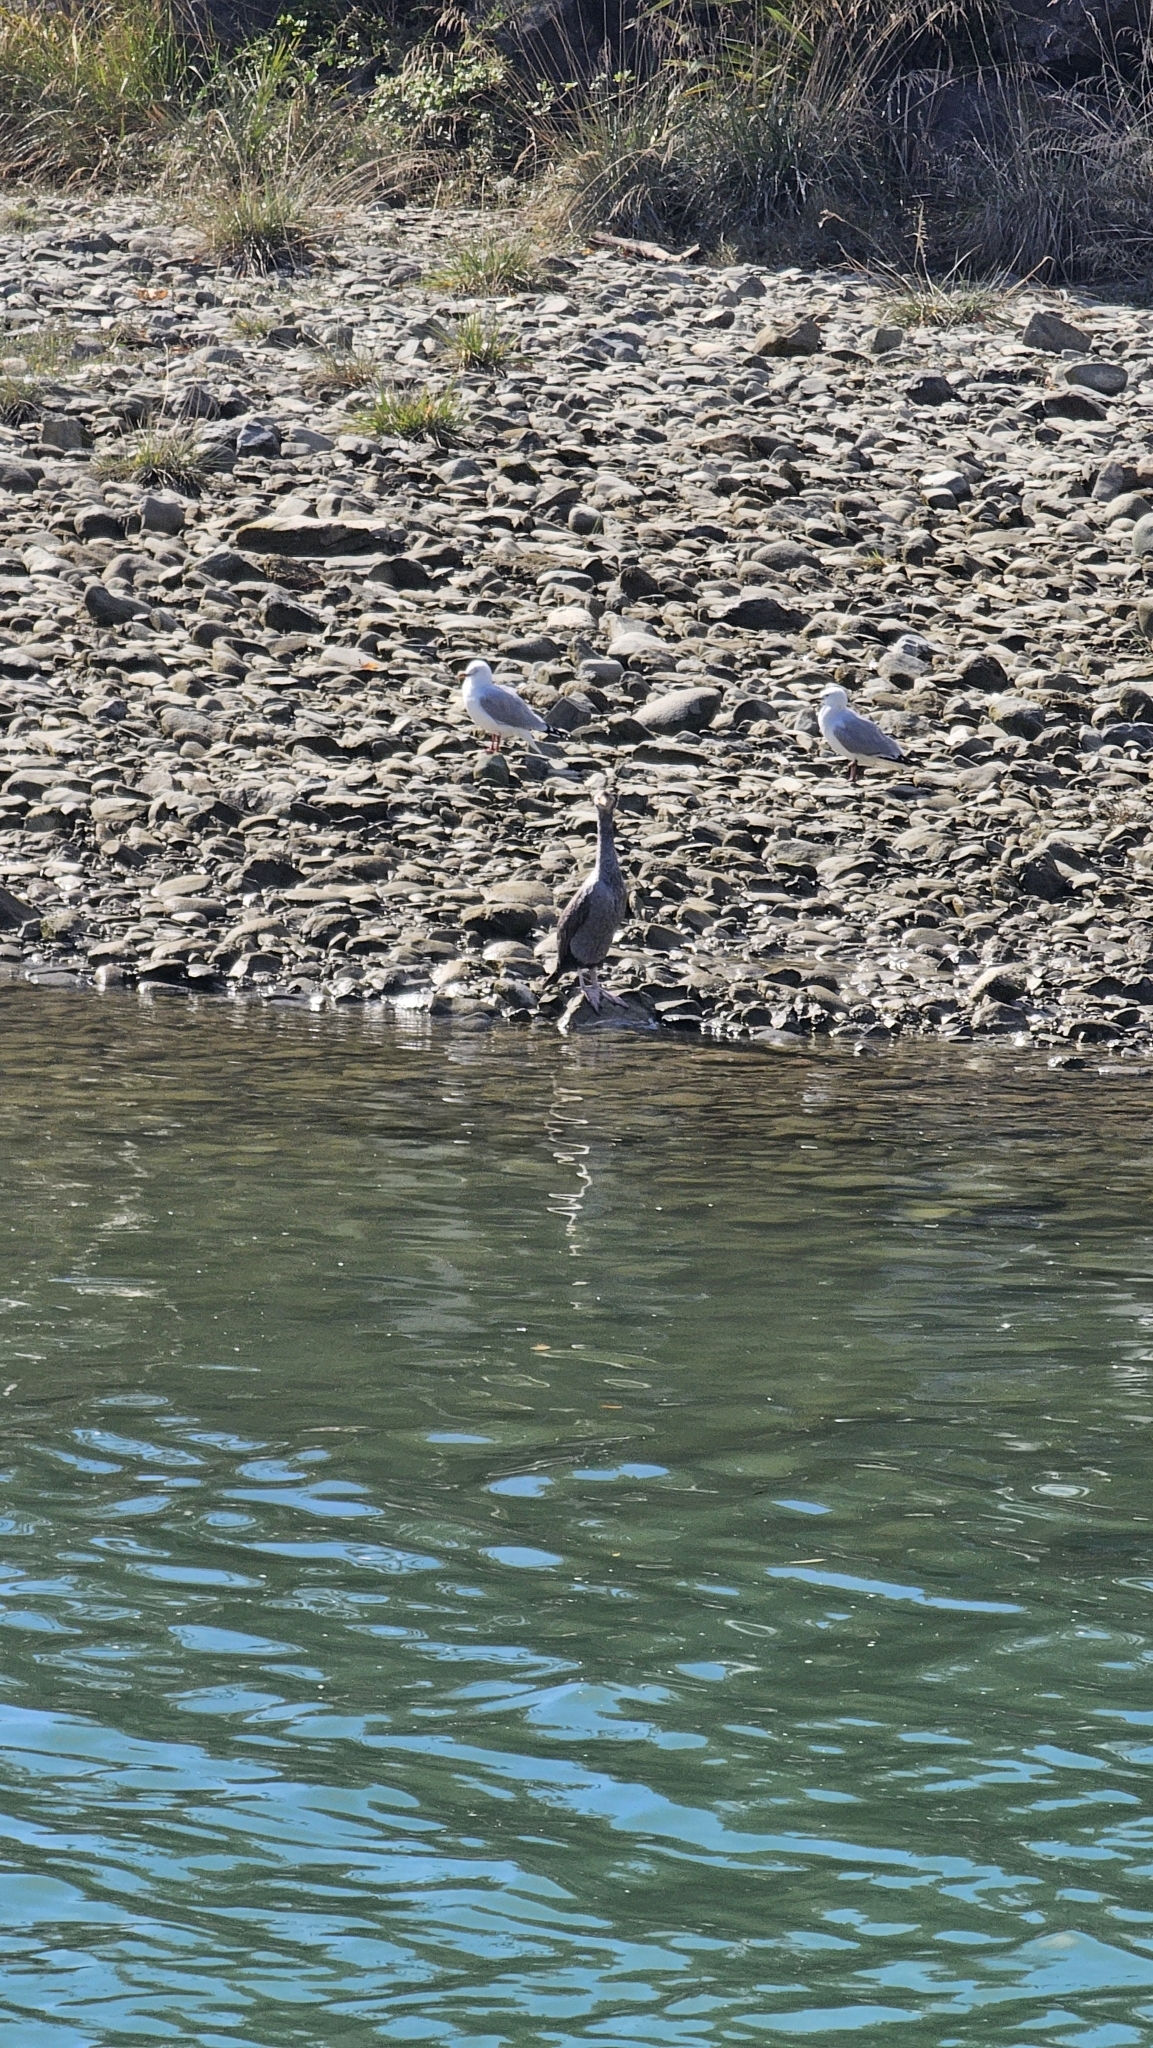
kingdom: Animalia
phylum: Chordata
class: Aves
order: Suliformes
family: Phalacrocoracidae
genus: Phalacrocorax
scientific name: Phalacrocorax punctatus
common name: Spotted shag
